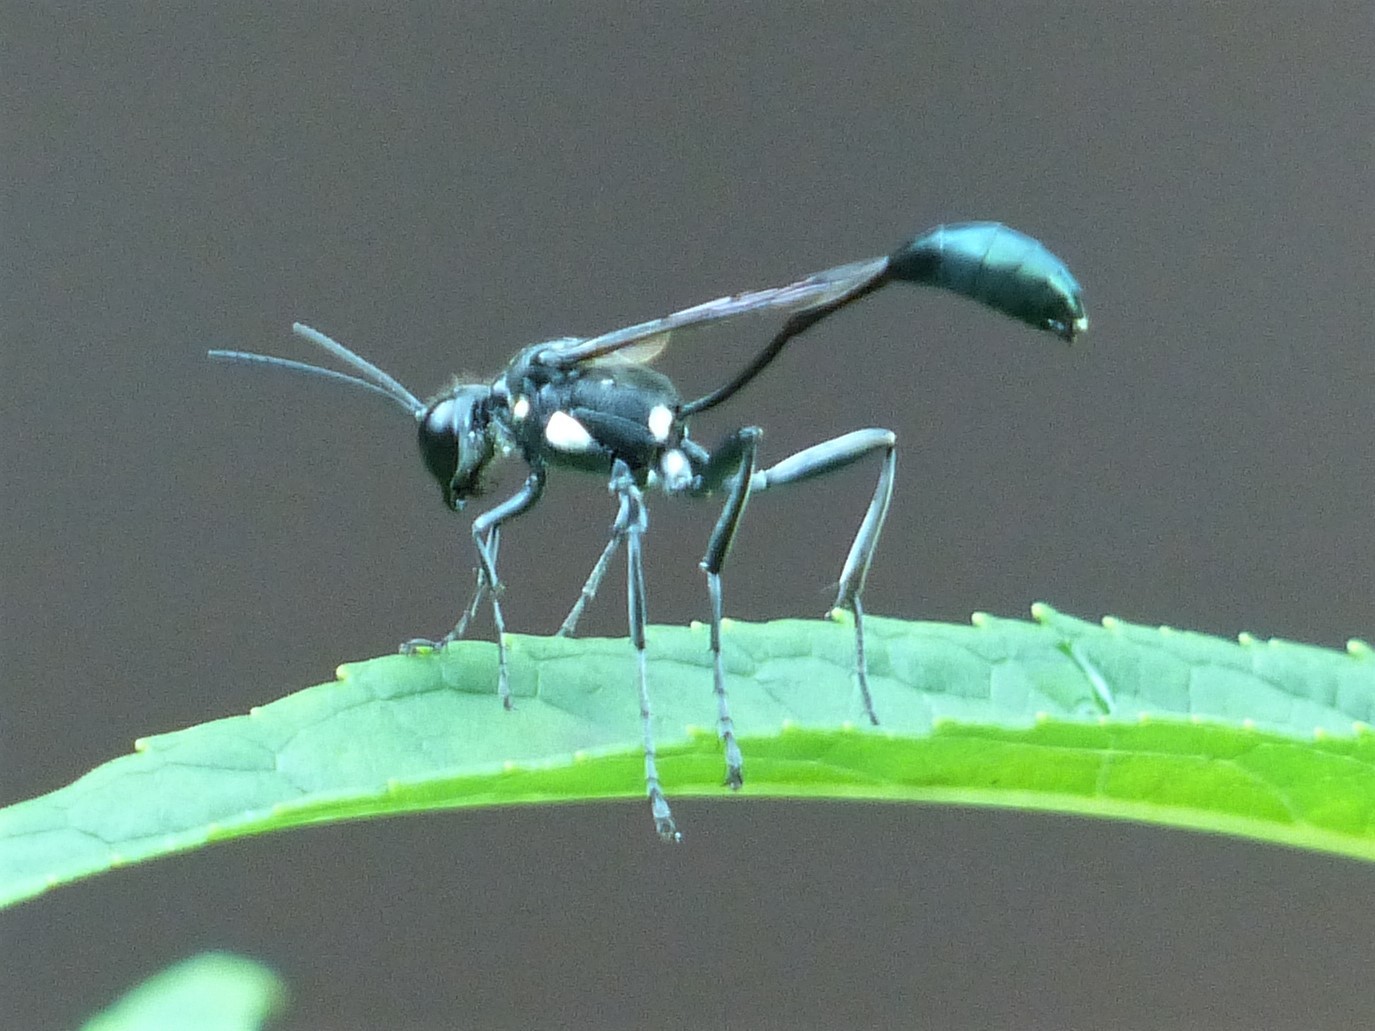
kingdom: Animalia
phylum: Arthropoda
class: Insecta
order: Hymenoptera
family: Sphecidae
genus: Eremnophila
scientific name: Eremnophila aureonotata
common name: Gold-marked thread-waisted wasp
